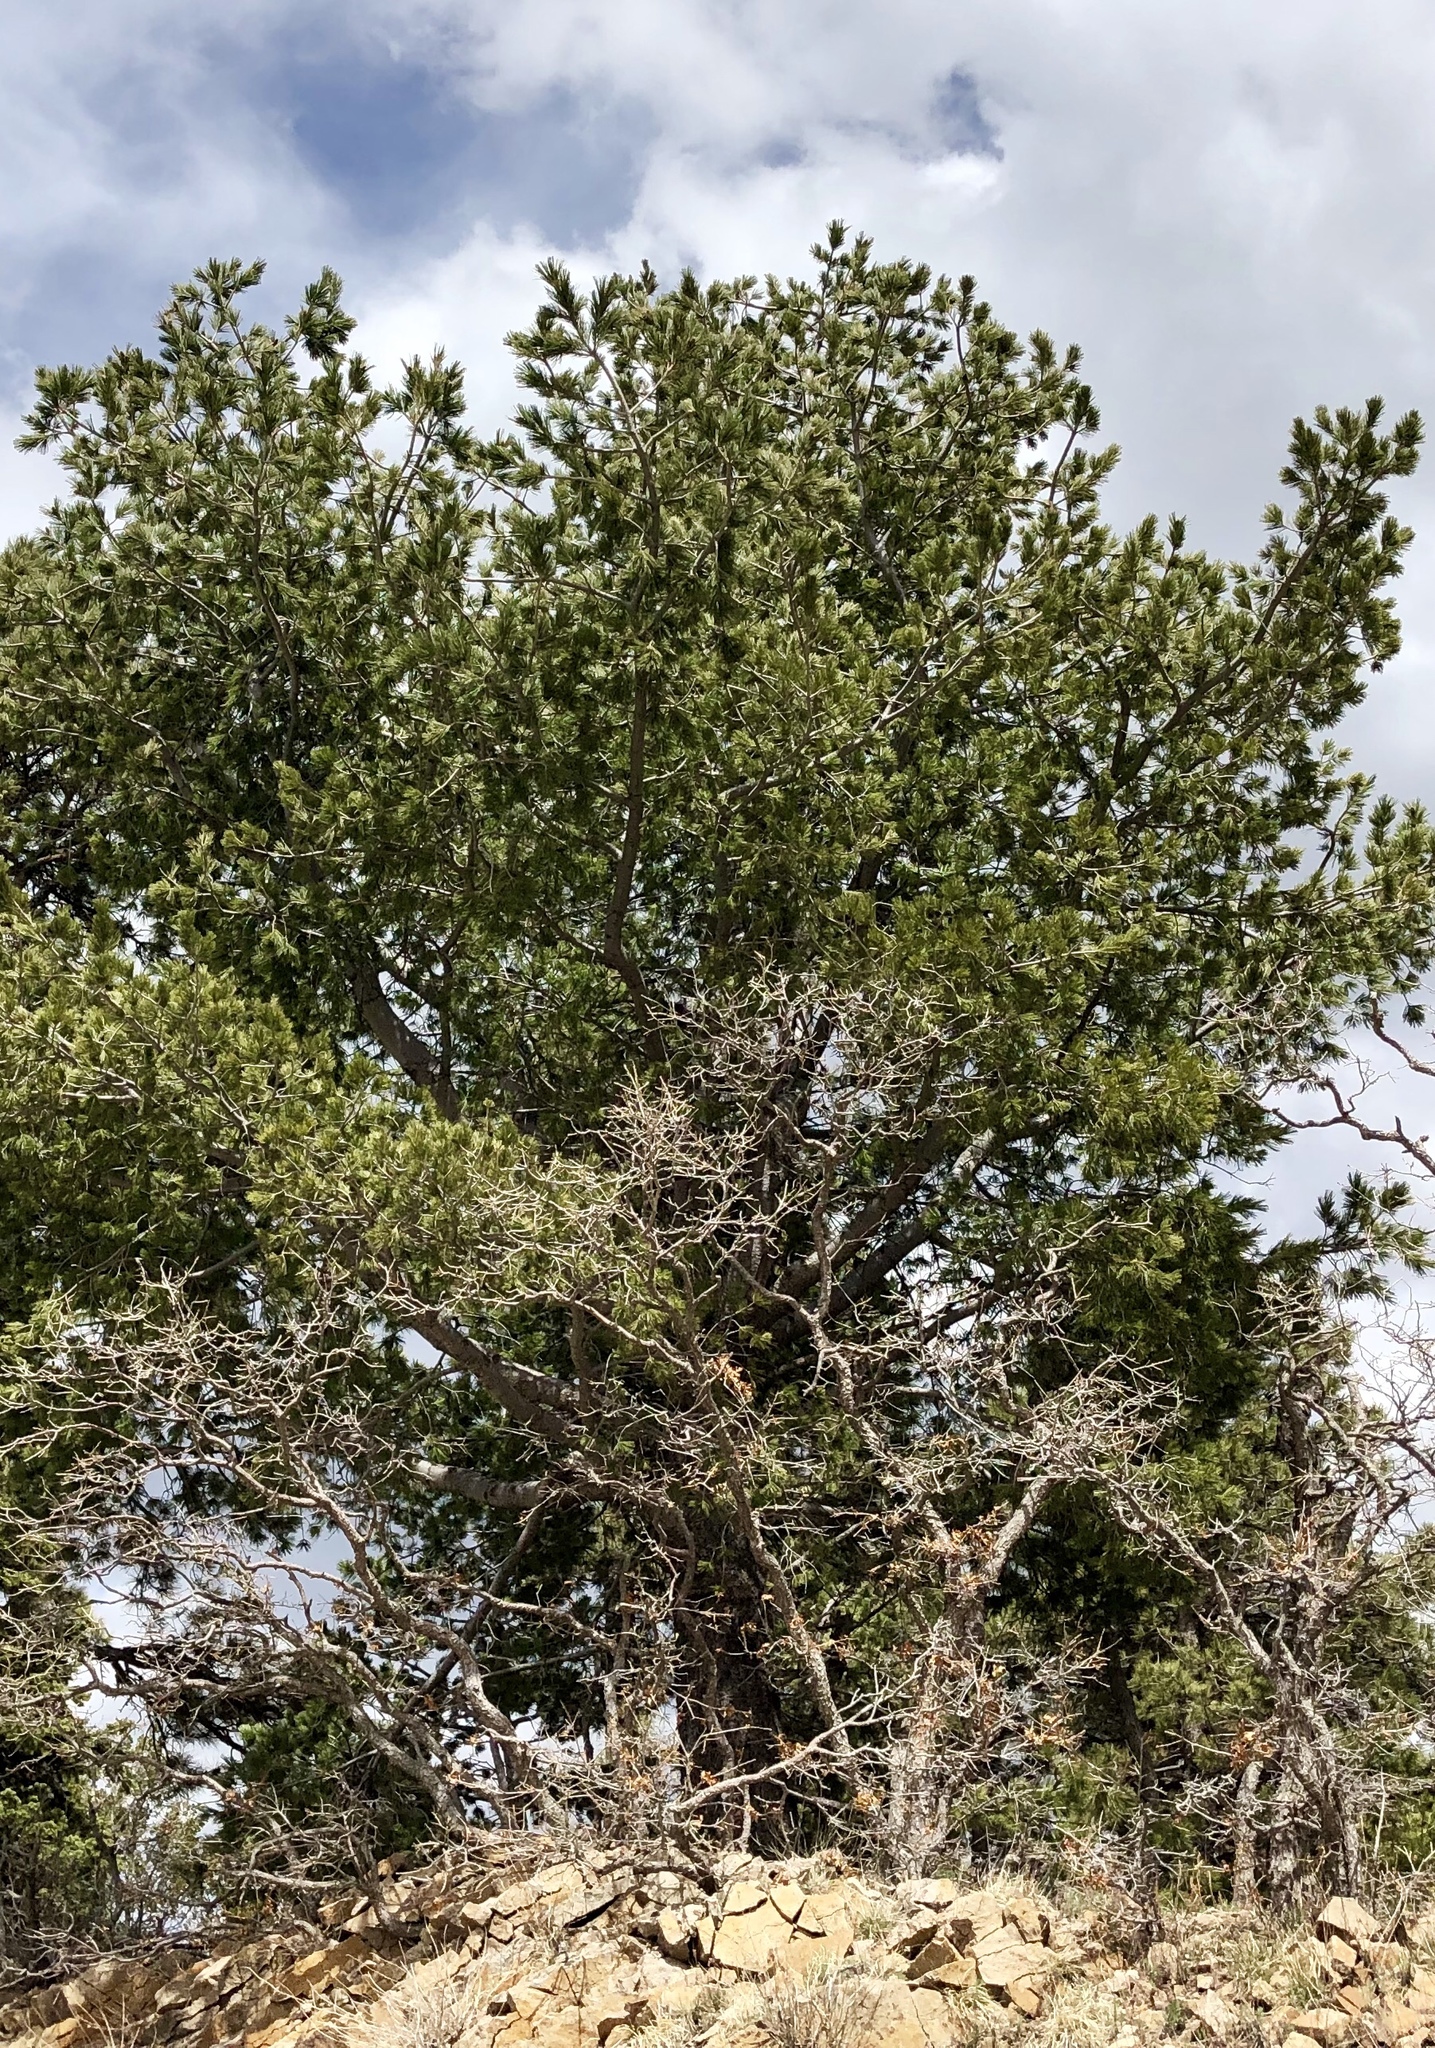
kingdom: Plantae
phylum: Tracheophyta
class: Pinopsida
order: Pinales
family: Pinaceae
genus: Pinus
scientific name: Pinus strobiformis
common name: Southwestern white pine
